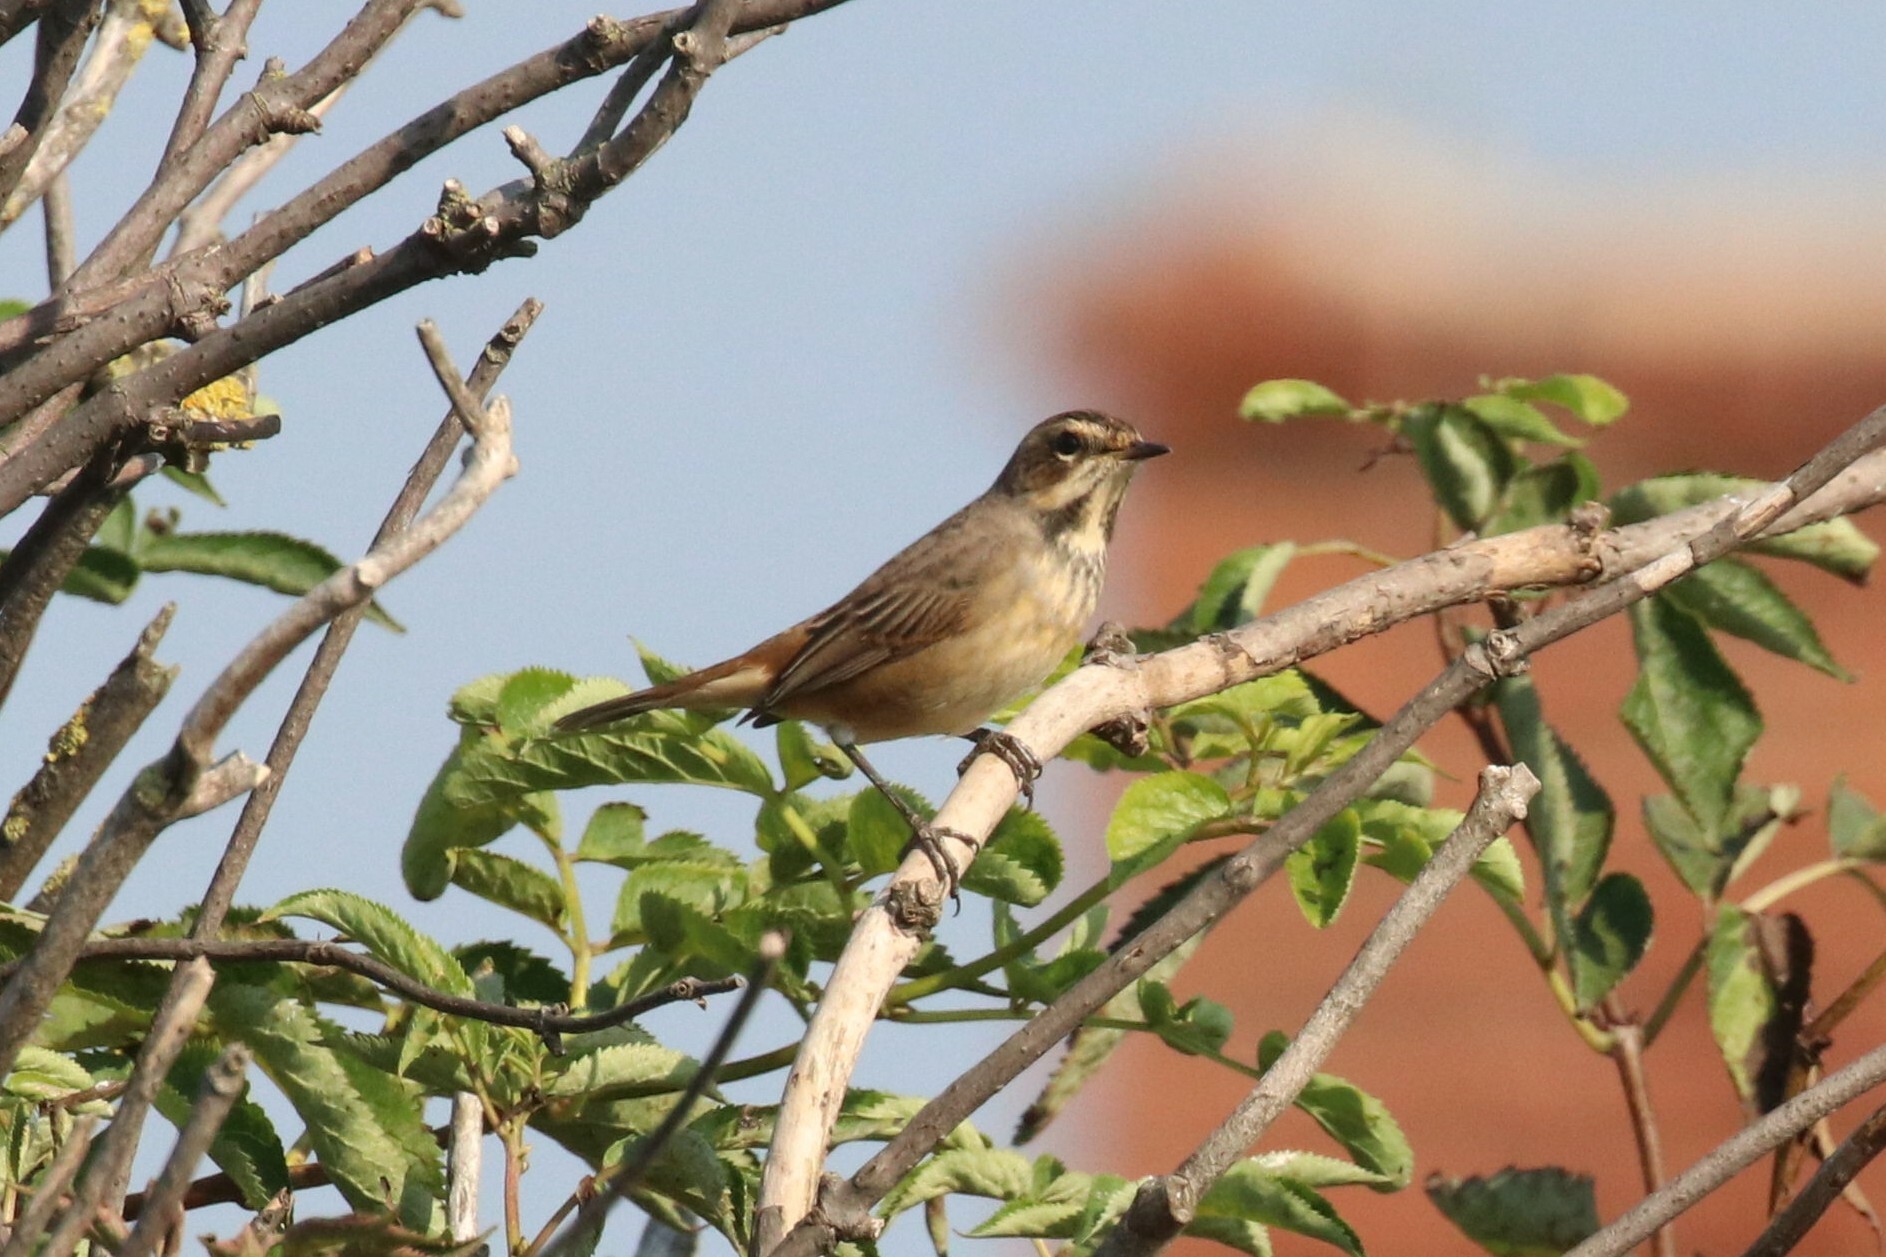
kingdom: Animalia
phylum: Chordata
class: Aves
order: Passeriformes
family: Muscicapidae
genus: Luscinia
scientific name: Luscinia svecica
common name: Bluethroat
